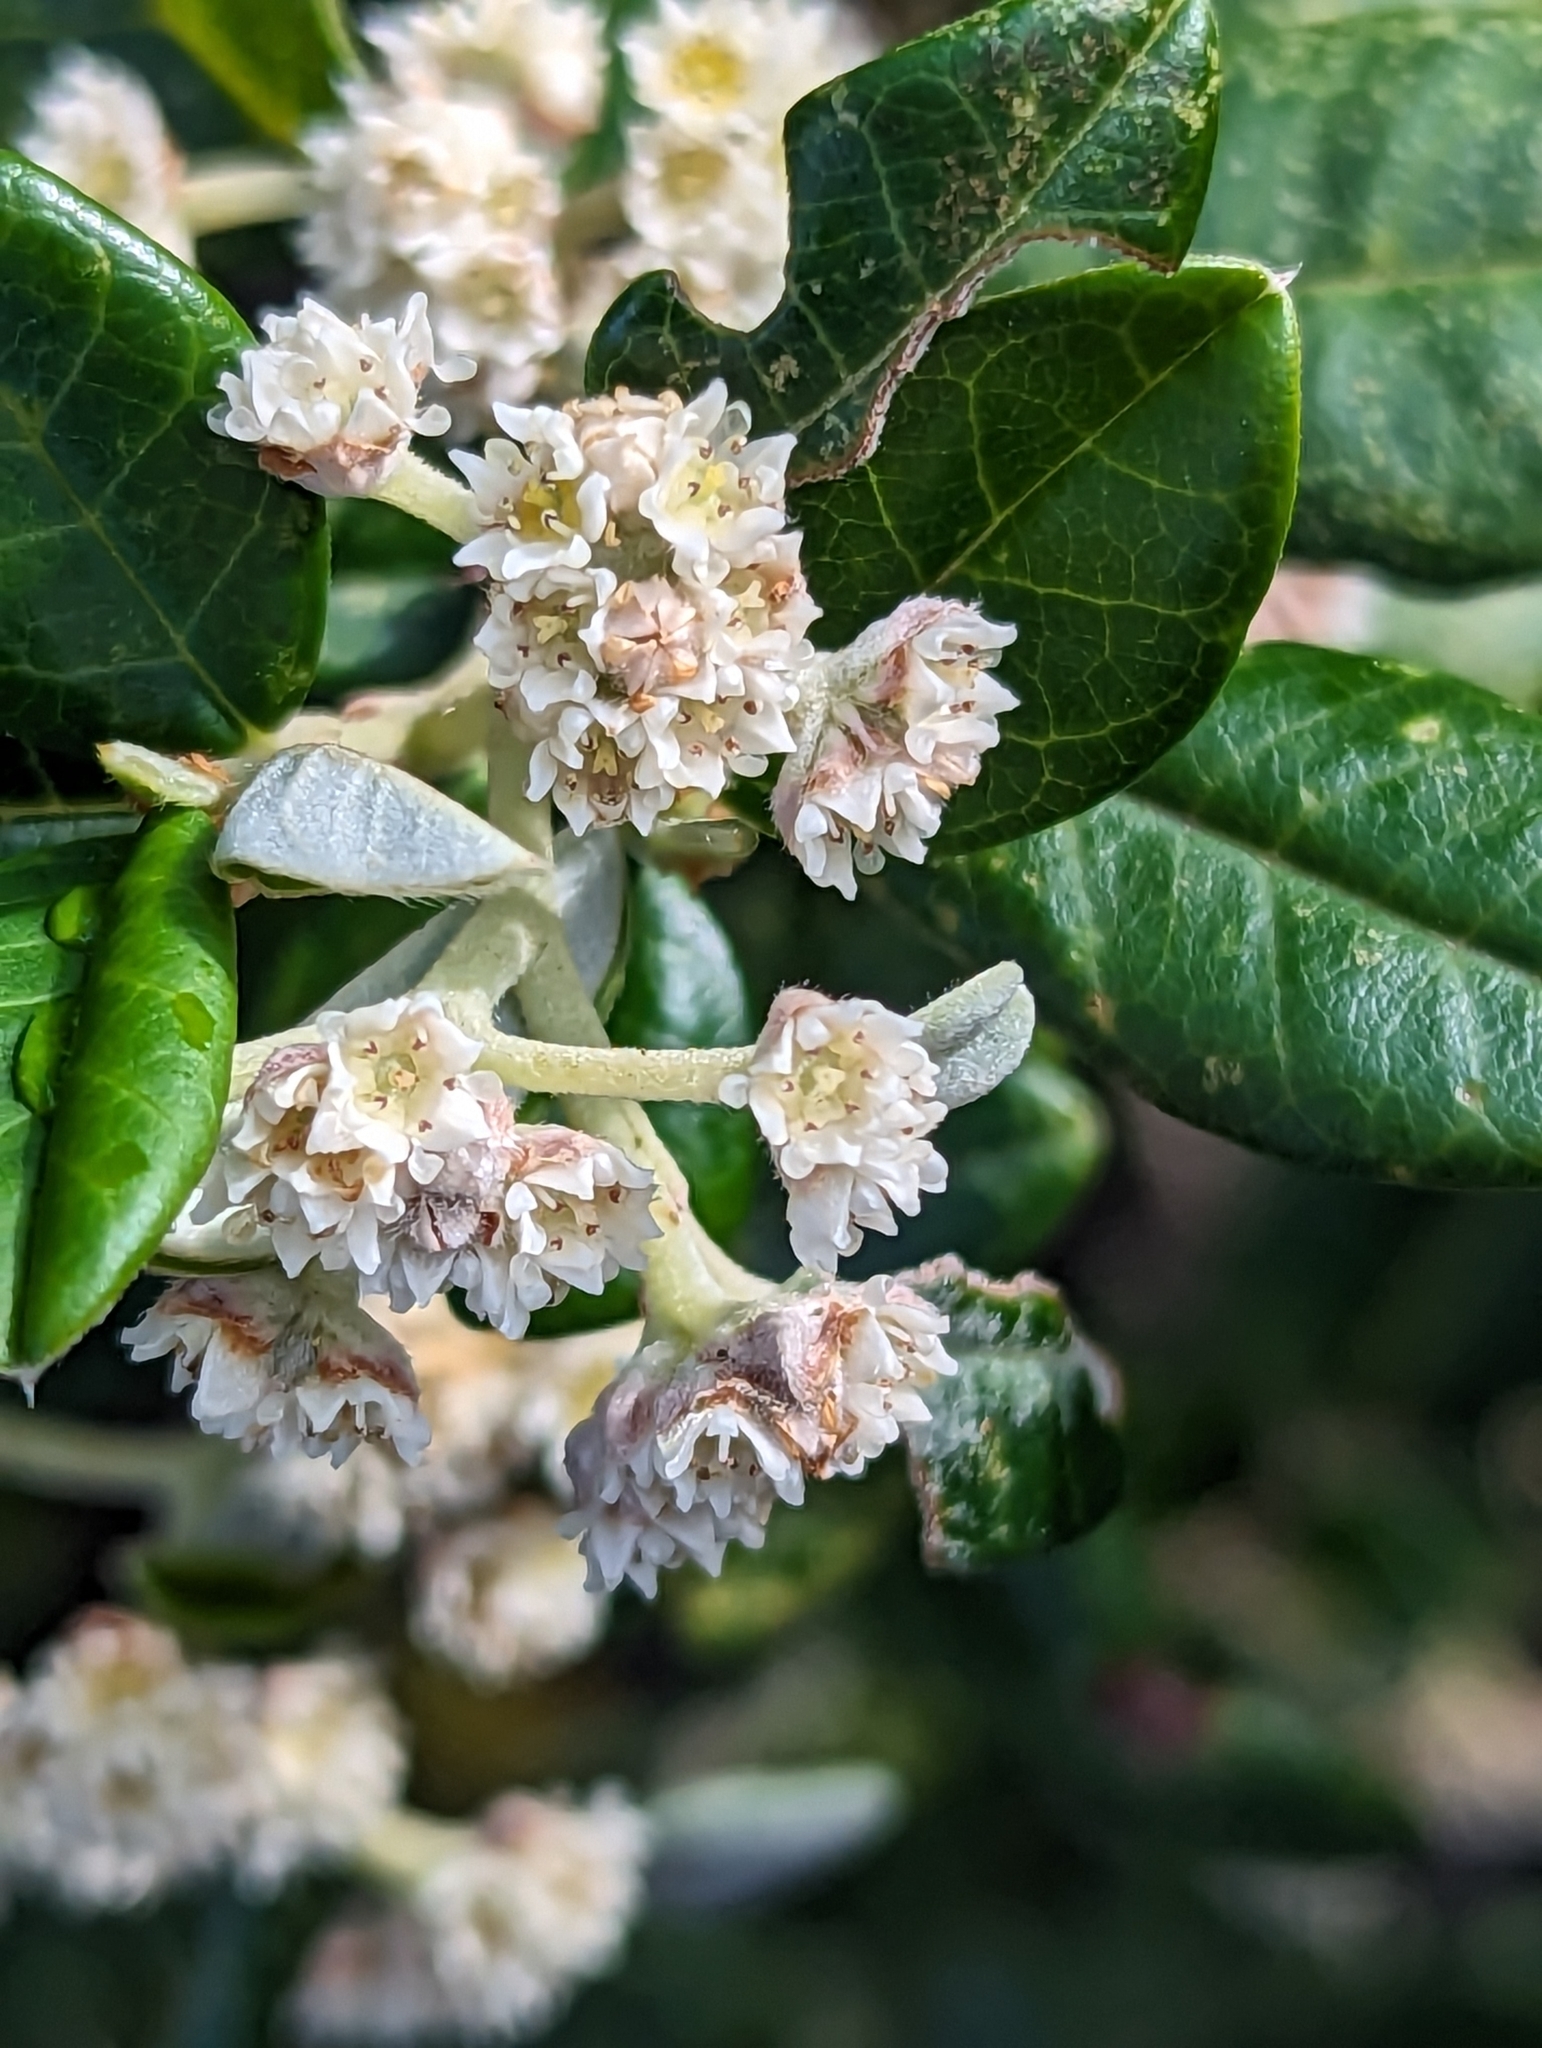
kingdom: Plantae
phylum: Tracheophyta
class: Magnoliopsida
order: Rosales
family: Rhamnaceae
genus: Spyridium
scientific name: Spyridium globulosum
